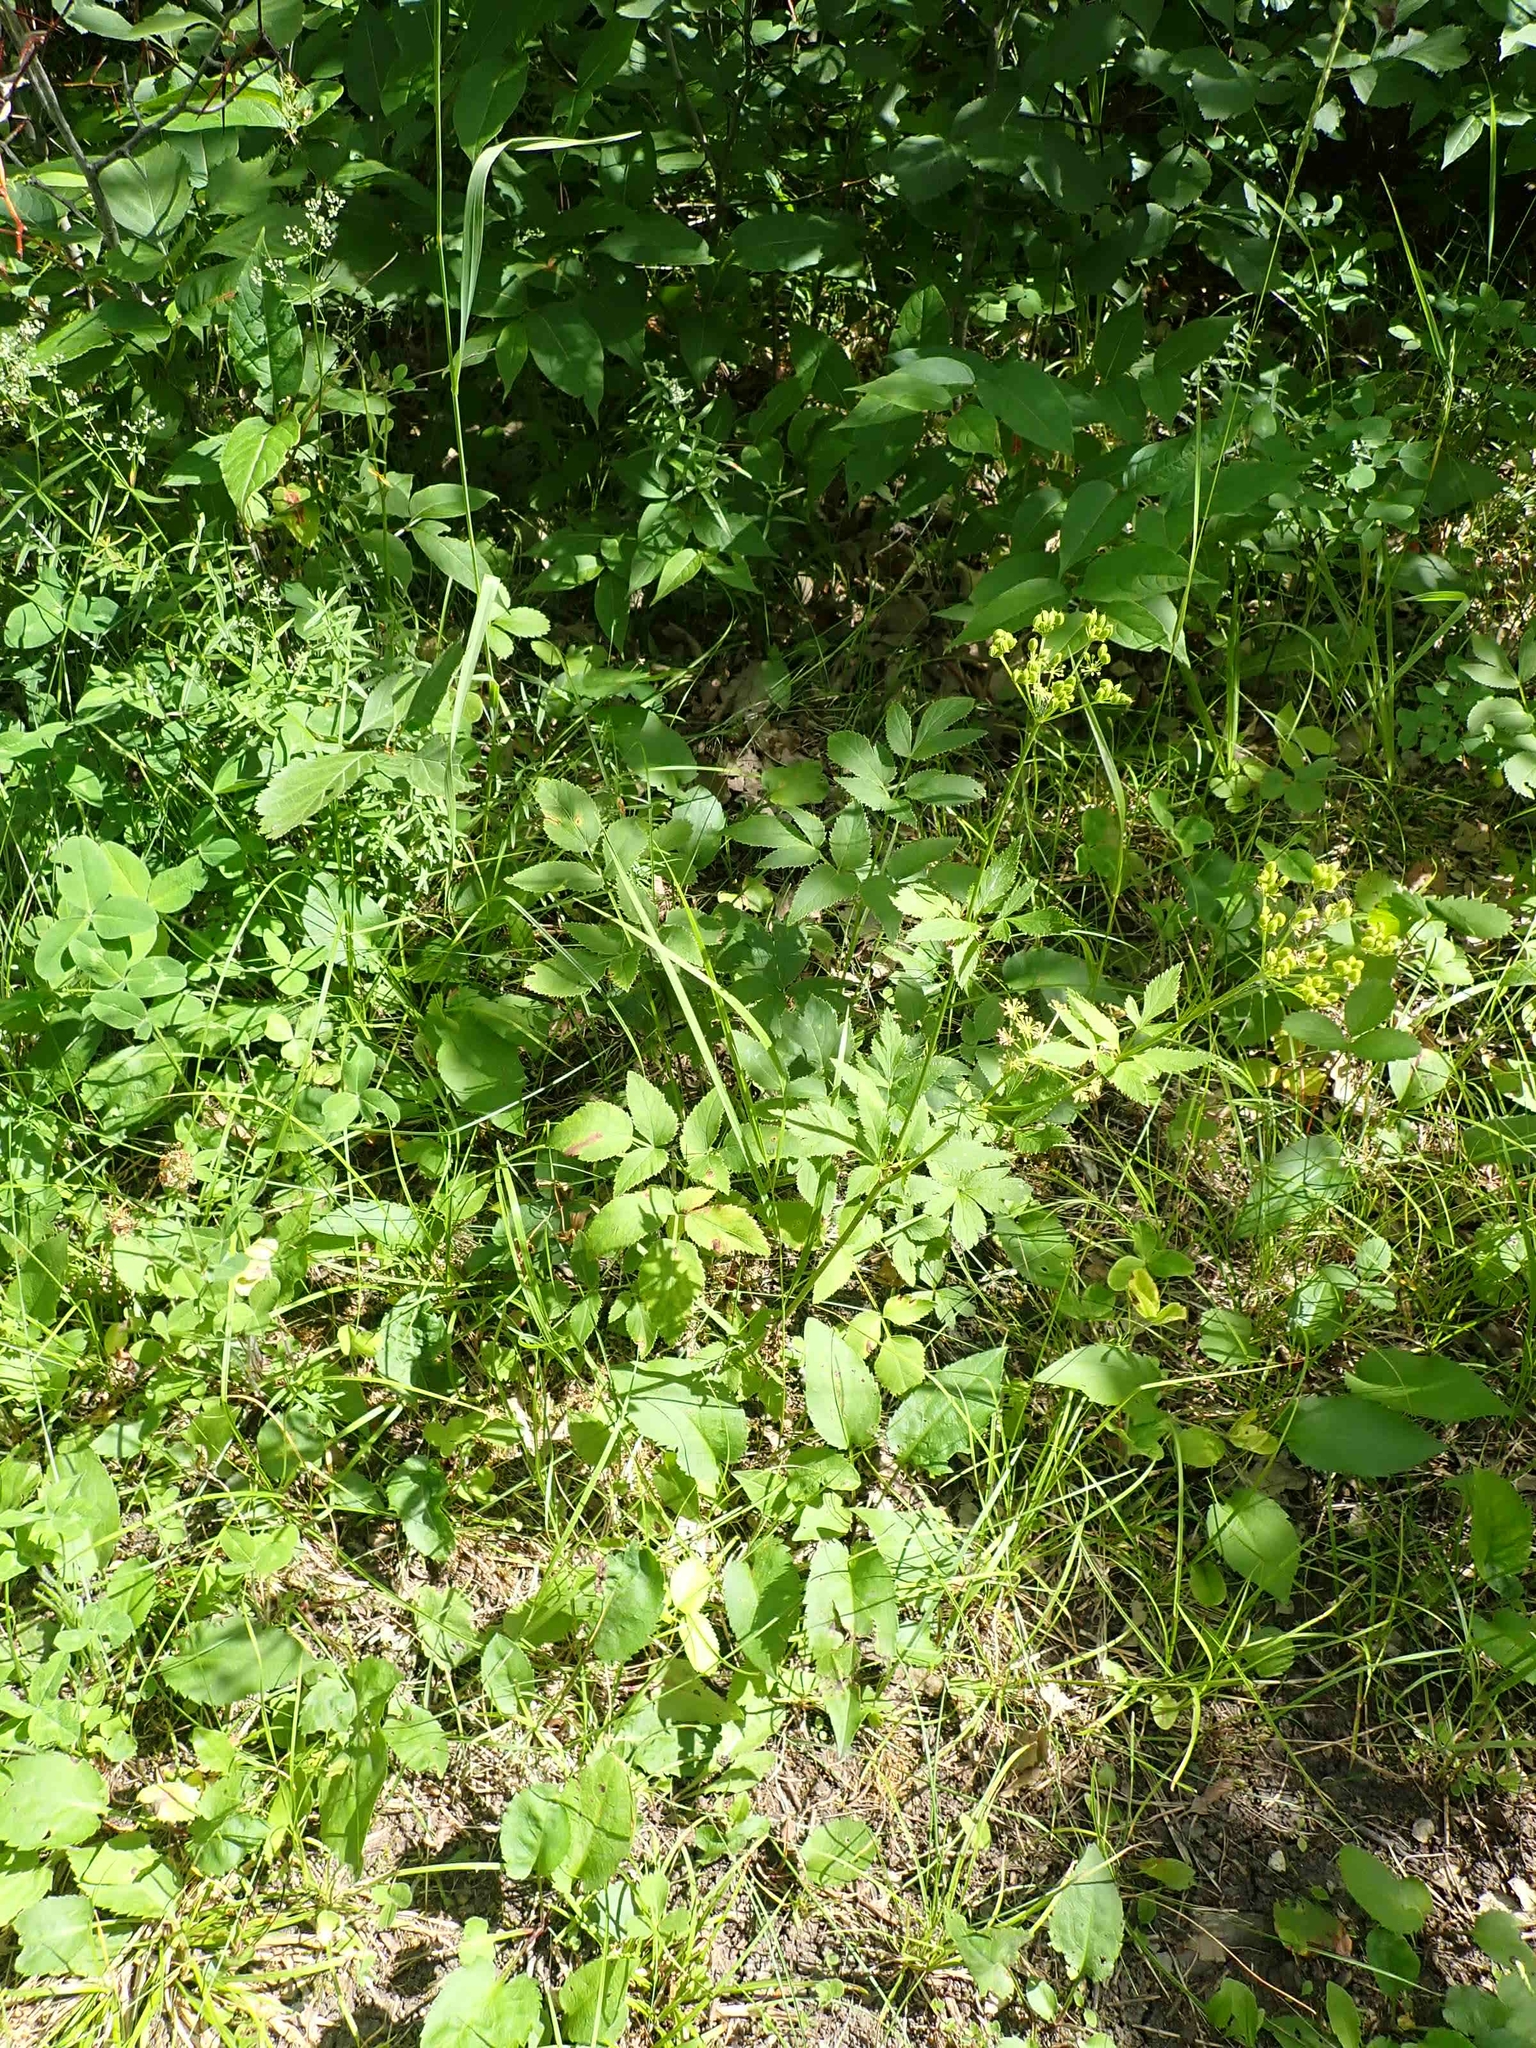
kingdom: Plantae
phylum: Tracheophyta
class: Magnoliopsida
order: Apiales
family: Apiaceae
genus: Zizia
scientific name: Zizia aurea
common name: Golden alexanders
